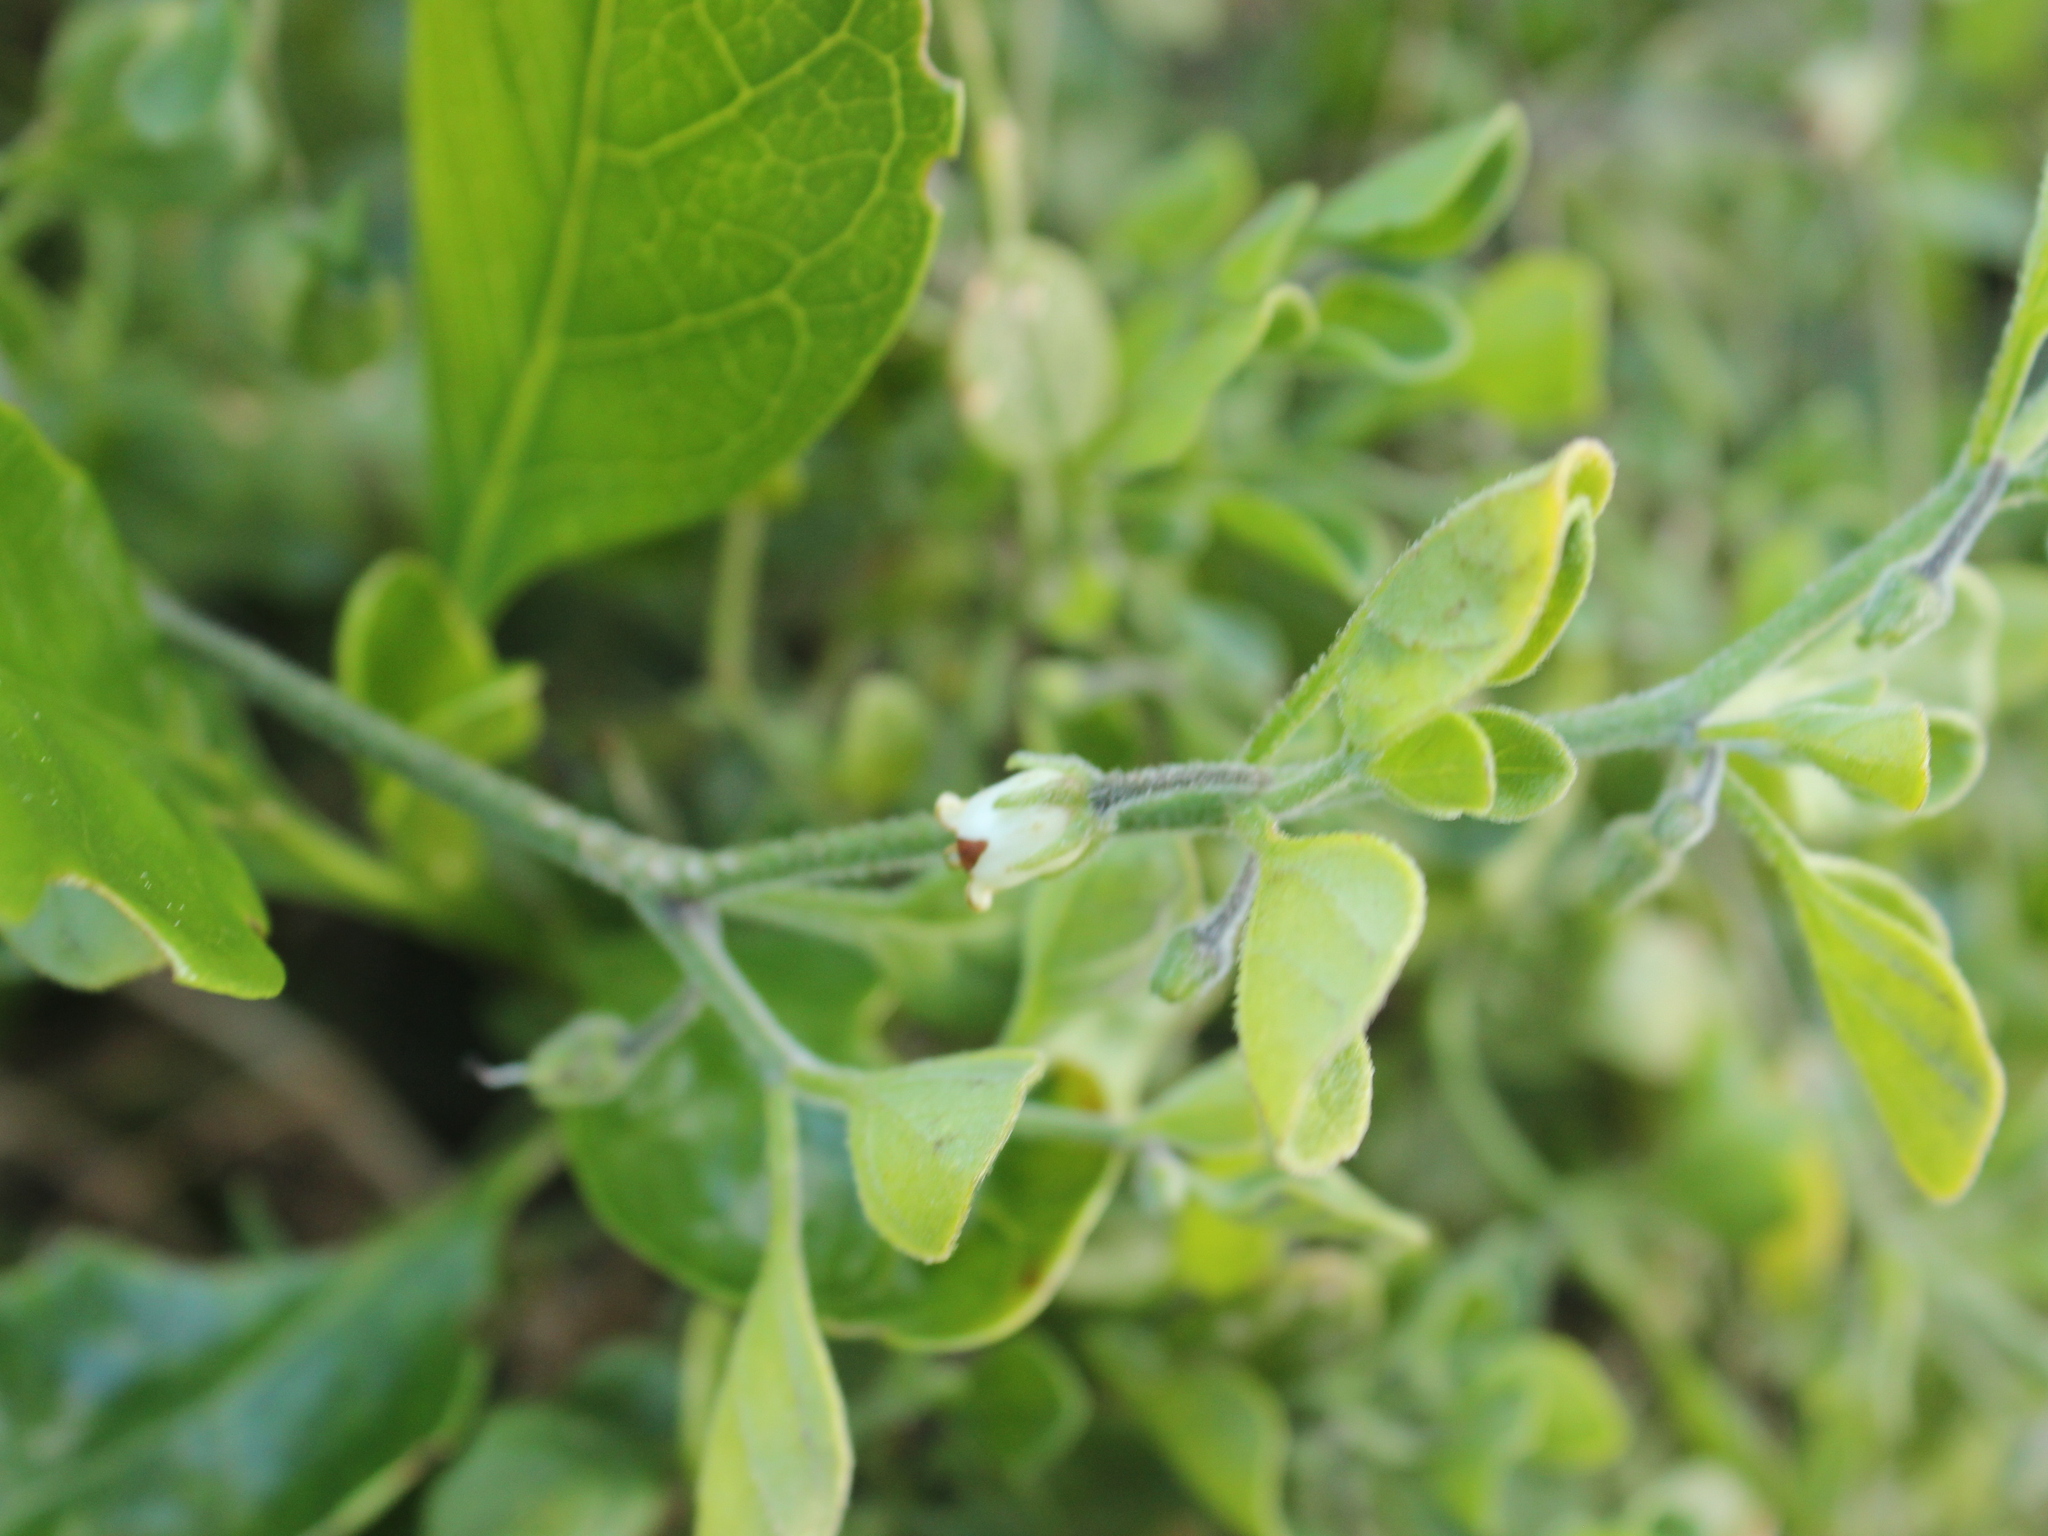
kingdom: Plantae
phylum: Tracheophyta
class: Magnoliopsida
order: Solanales
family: Solanaceae
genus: Salpichroa
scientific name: Salpichroa origanifolia
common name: Lily-of-the-valley-vine
